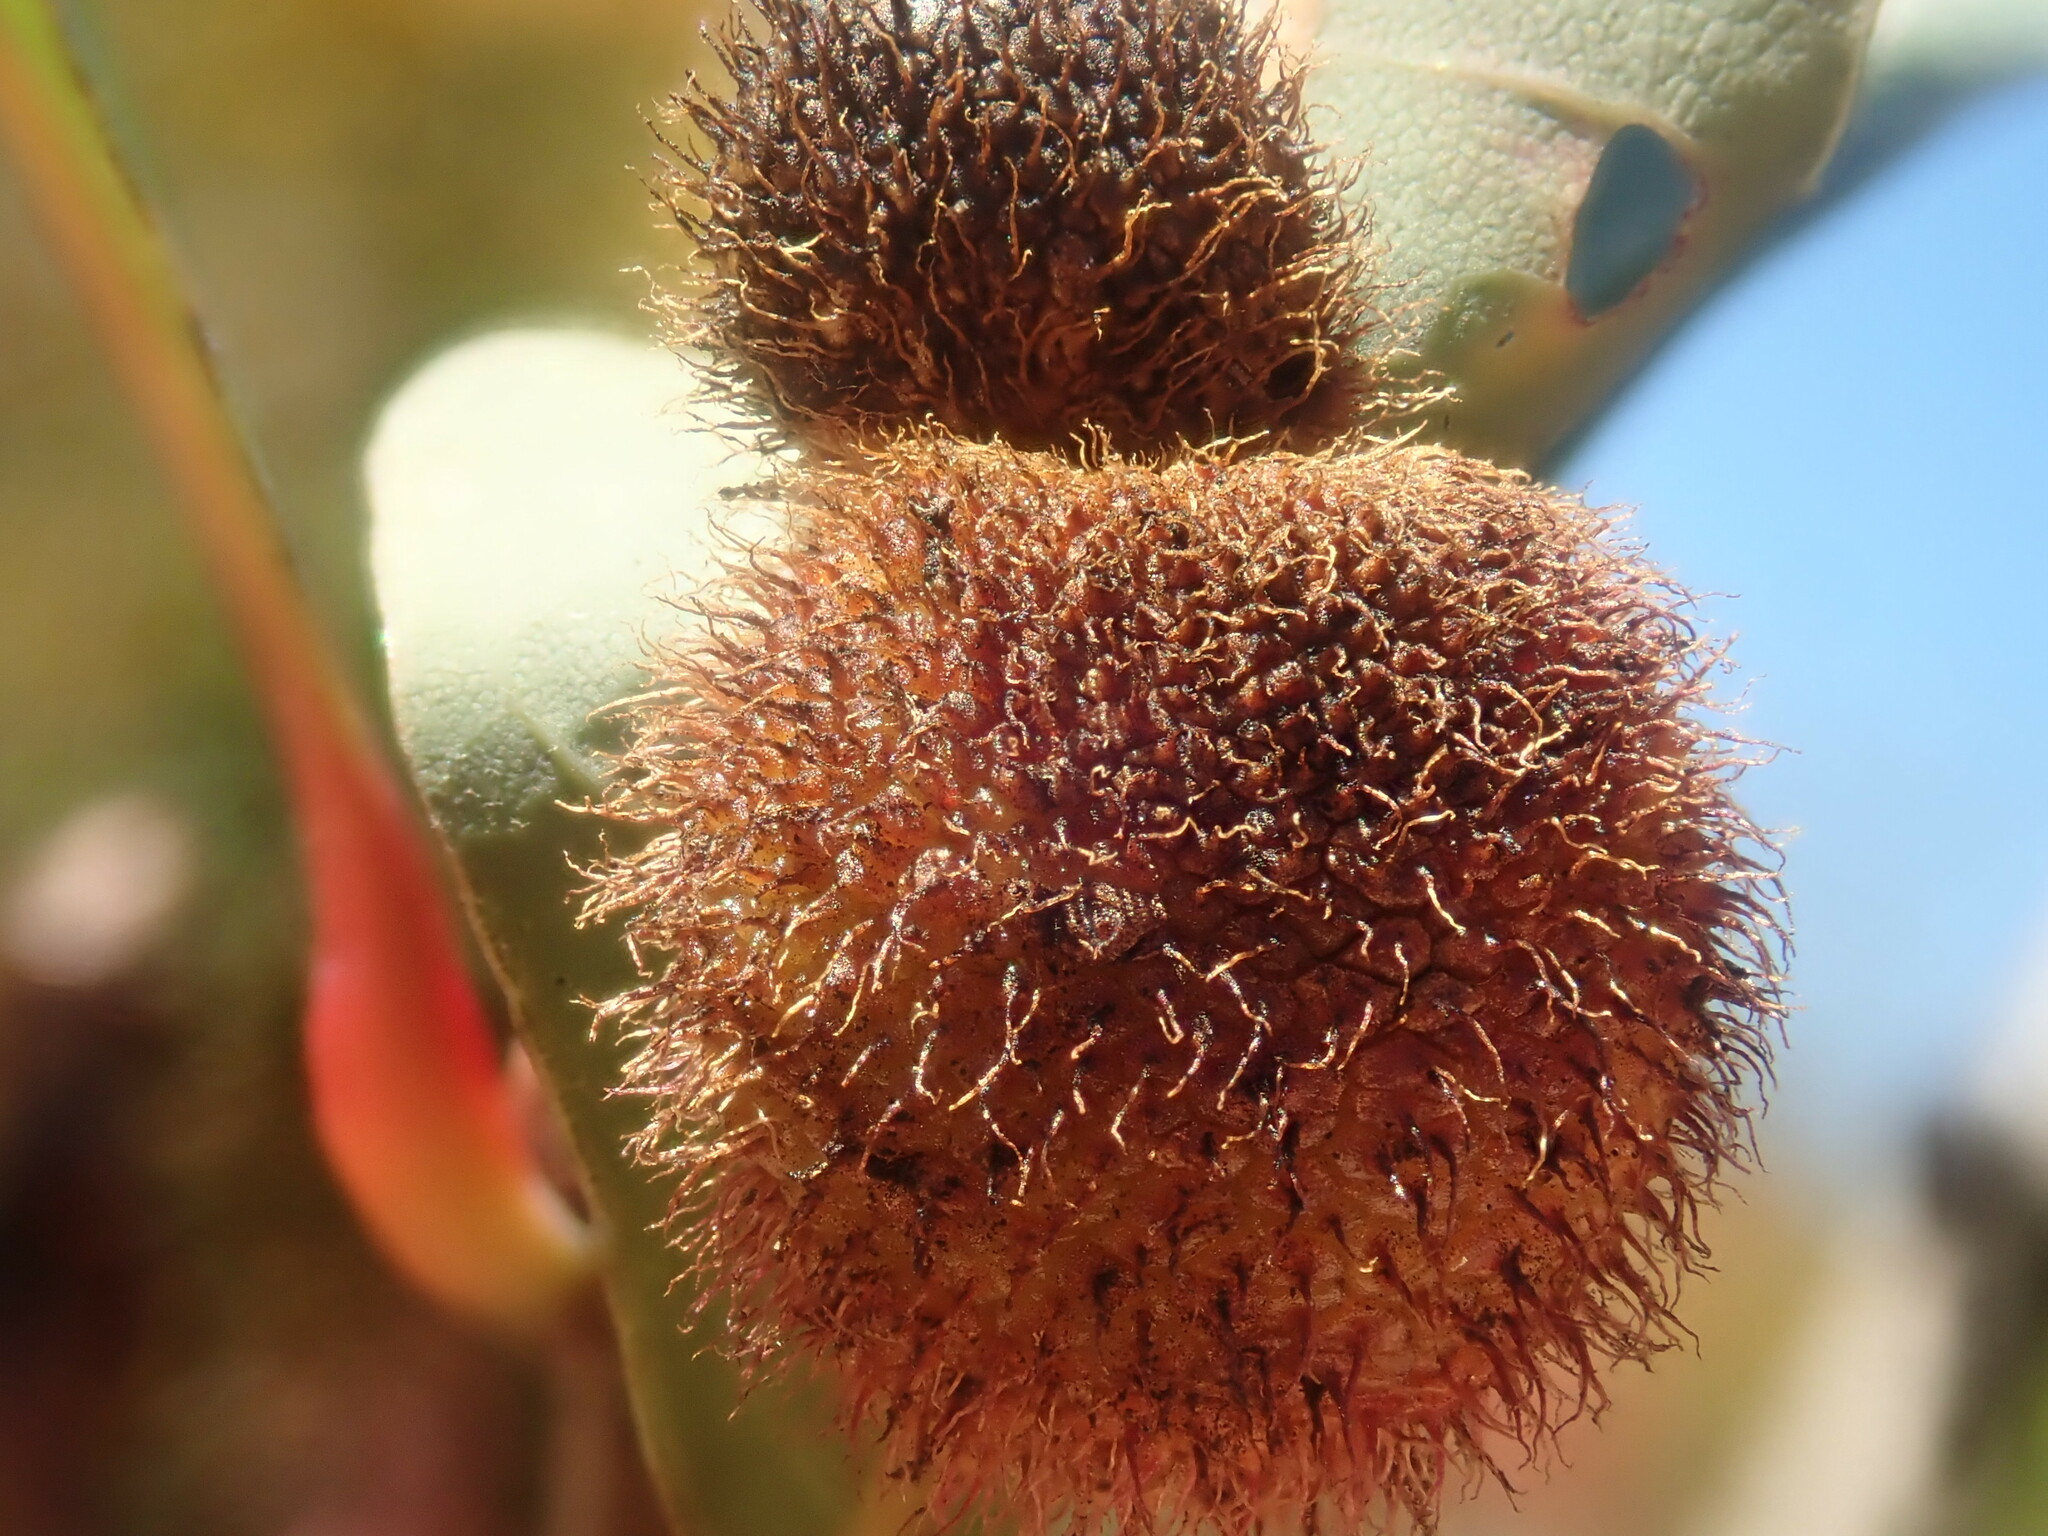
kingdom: Animalia
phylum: Arthropoda
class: Insecta
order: Hymenoptera
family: Cynipidae
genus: Acraspis
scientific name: Acraspis erinacei
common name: Hedgehog gall wasp
